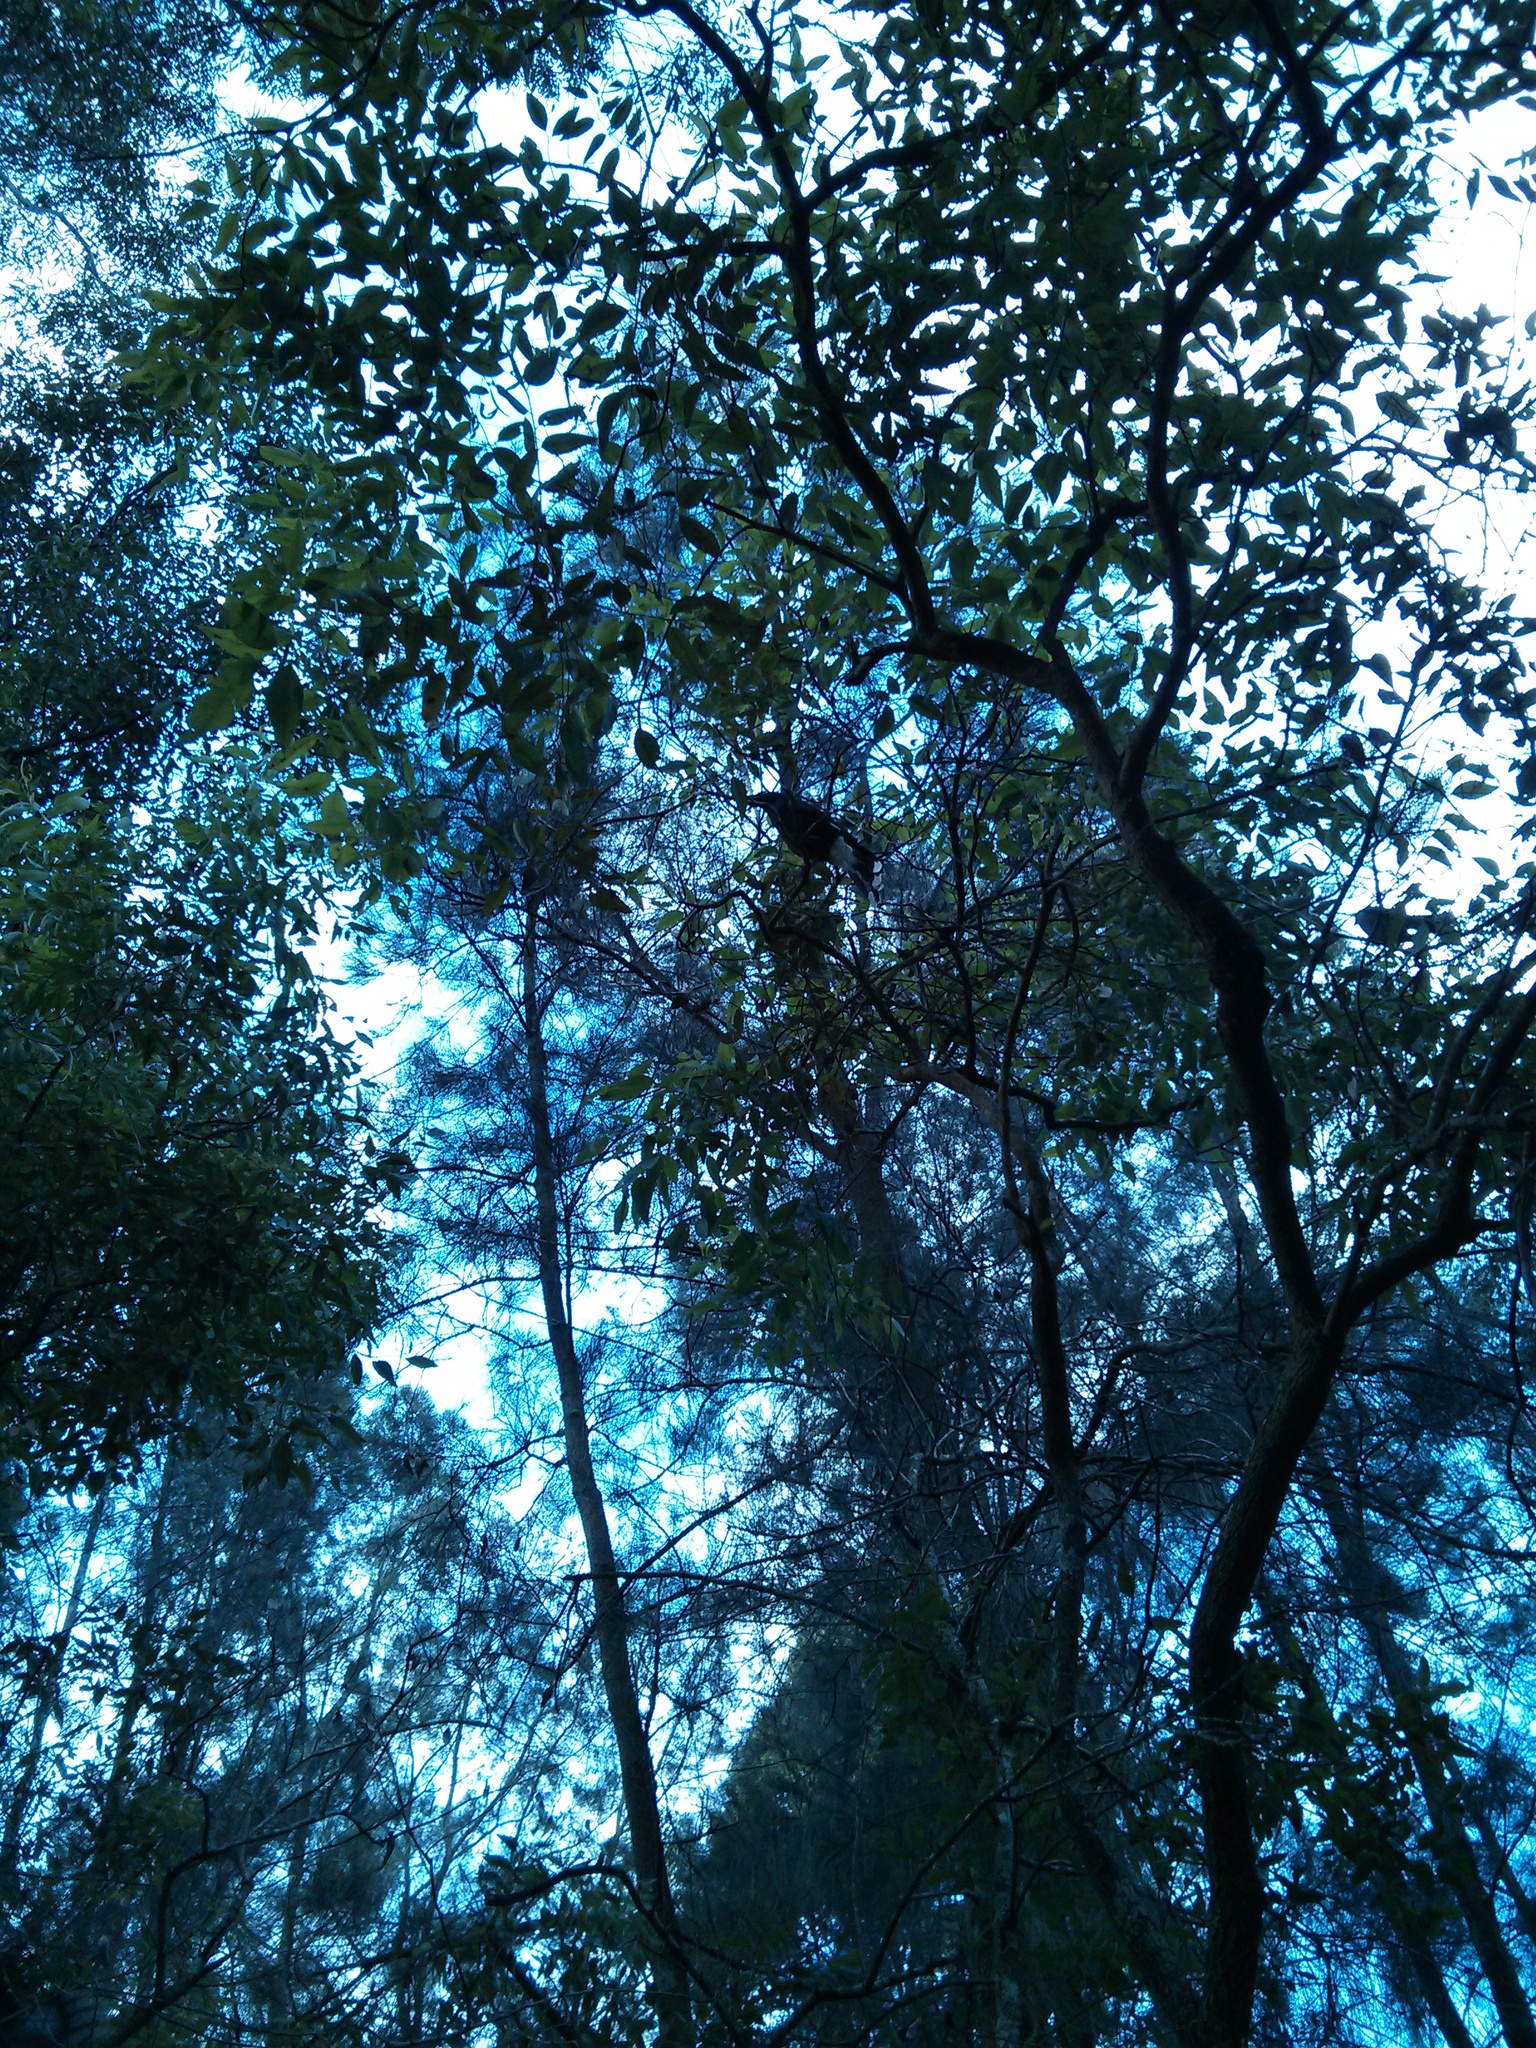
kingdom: Animalia
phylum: Chordata
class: Aves
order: Passeriformes
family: Cracticidae
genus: Strepera
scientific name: Strepera graculina
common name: Pied currawong
